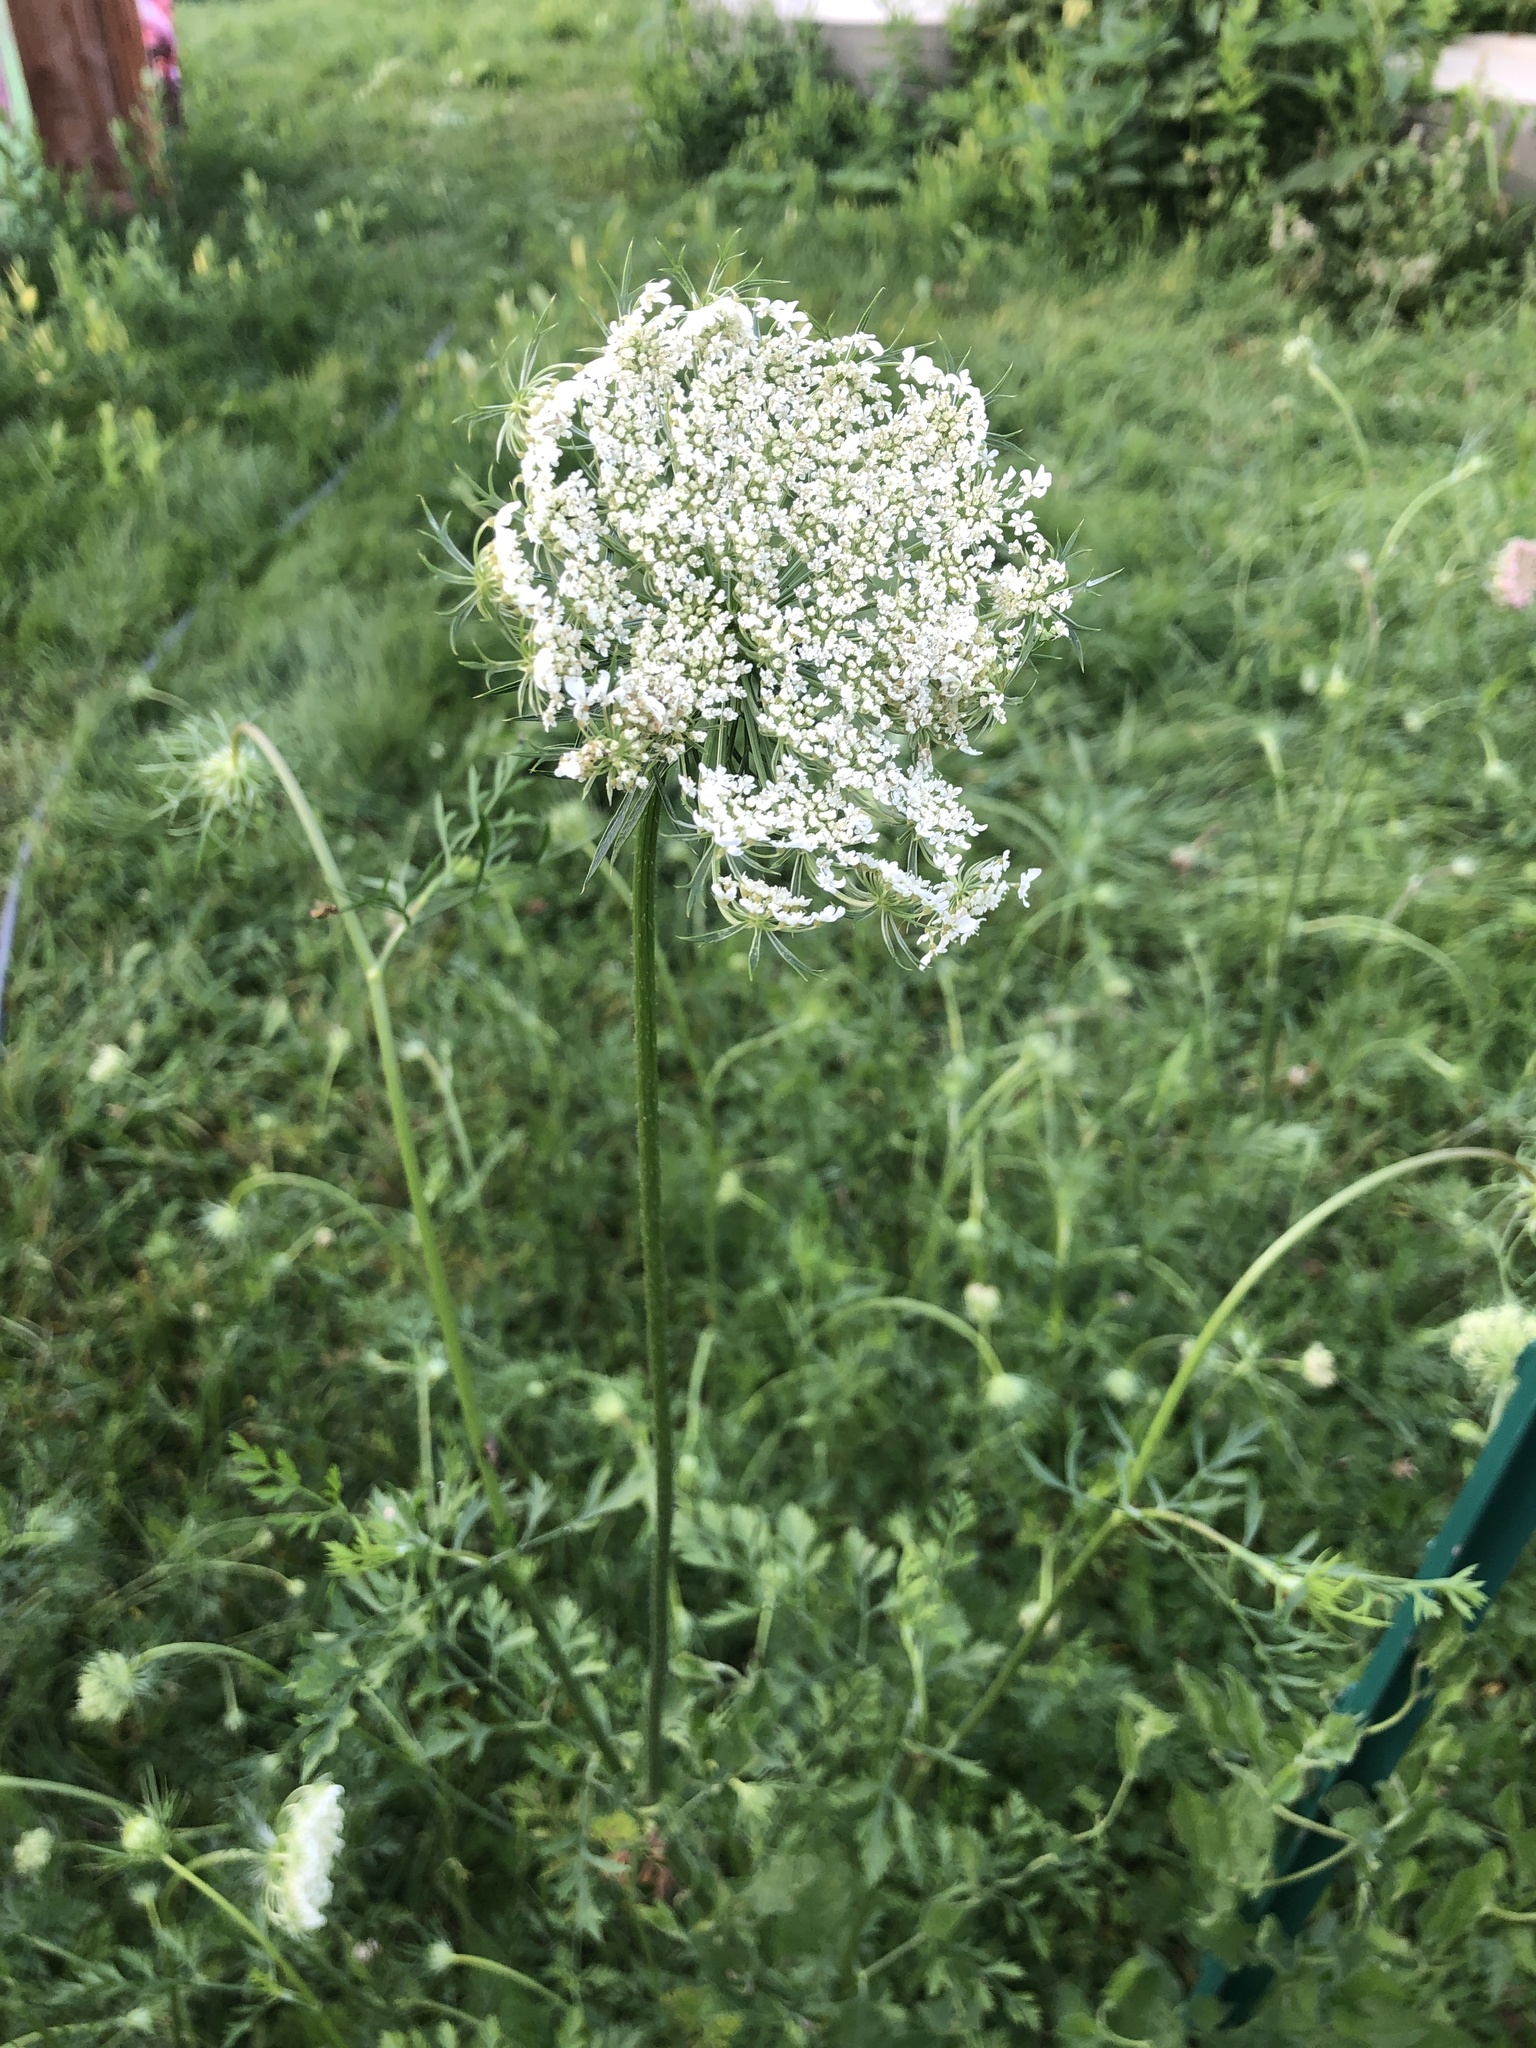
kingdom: Plantae
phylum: Tracheophyta
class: Magnoliopsida
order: Apiales
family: Apiaceae
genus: Daucus
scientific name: Daucus carota
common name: Wild carrot
